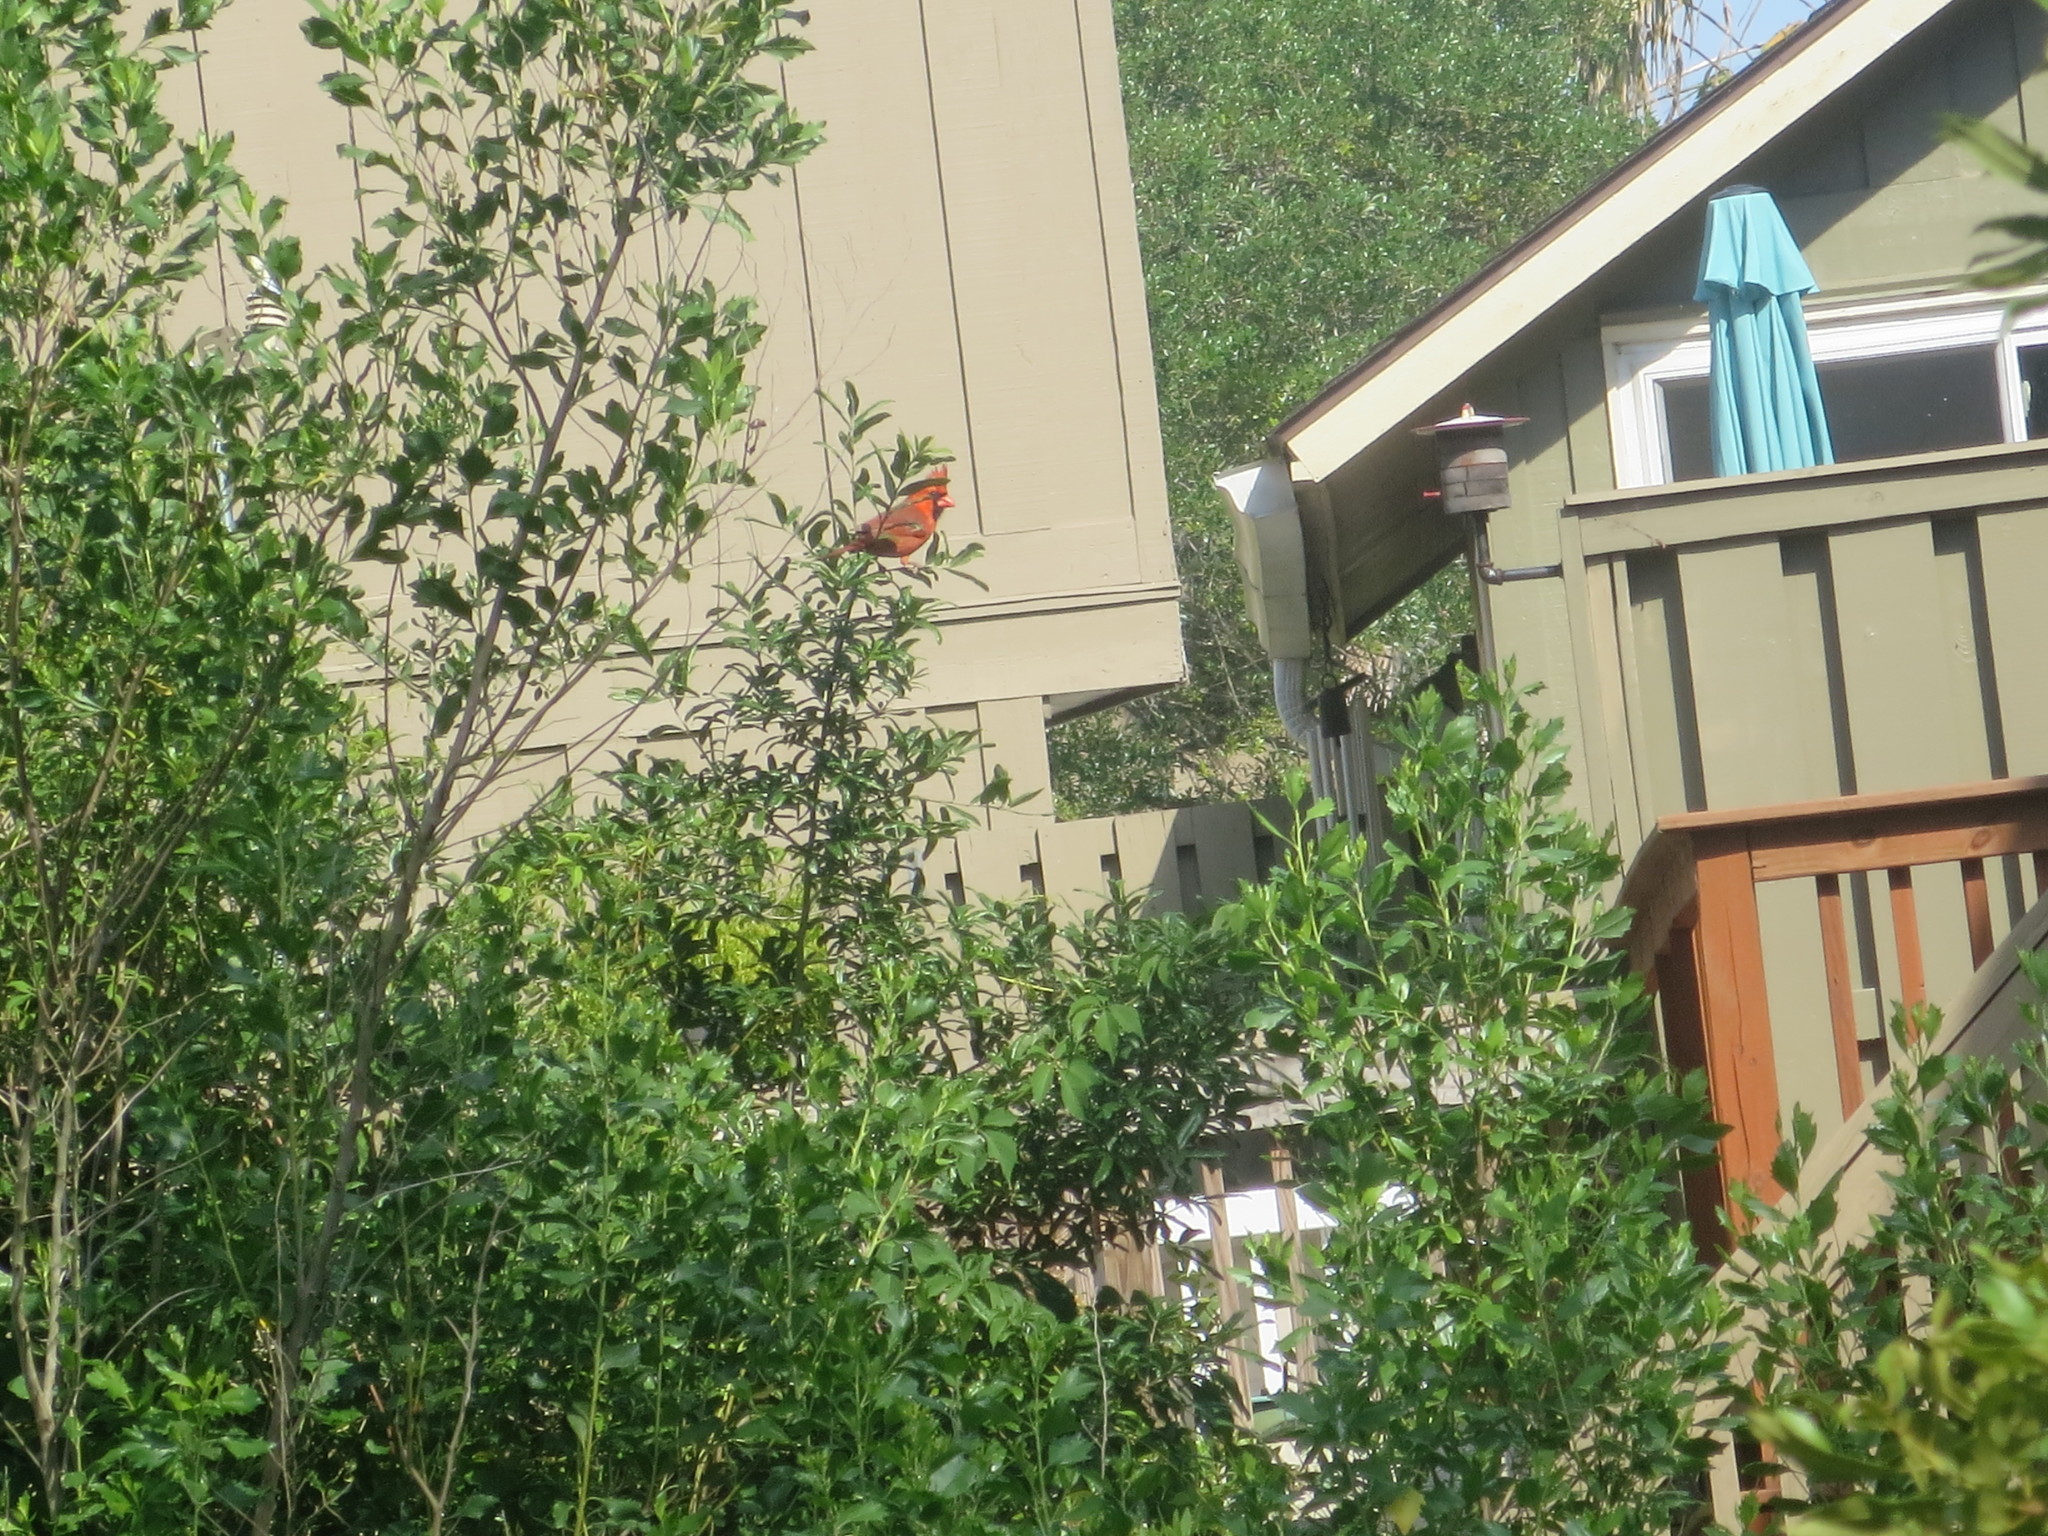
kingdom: Animalia
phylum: Chordata
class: Aves
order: Passeriformes
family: Cardinalidae
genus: Cardinalis
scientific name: Cardinalis cardinalis
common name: Northern cardinal
